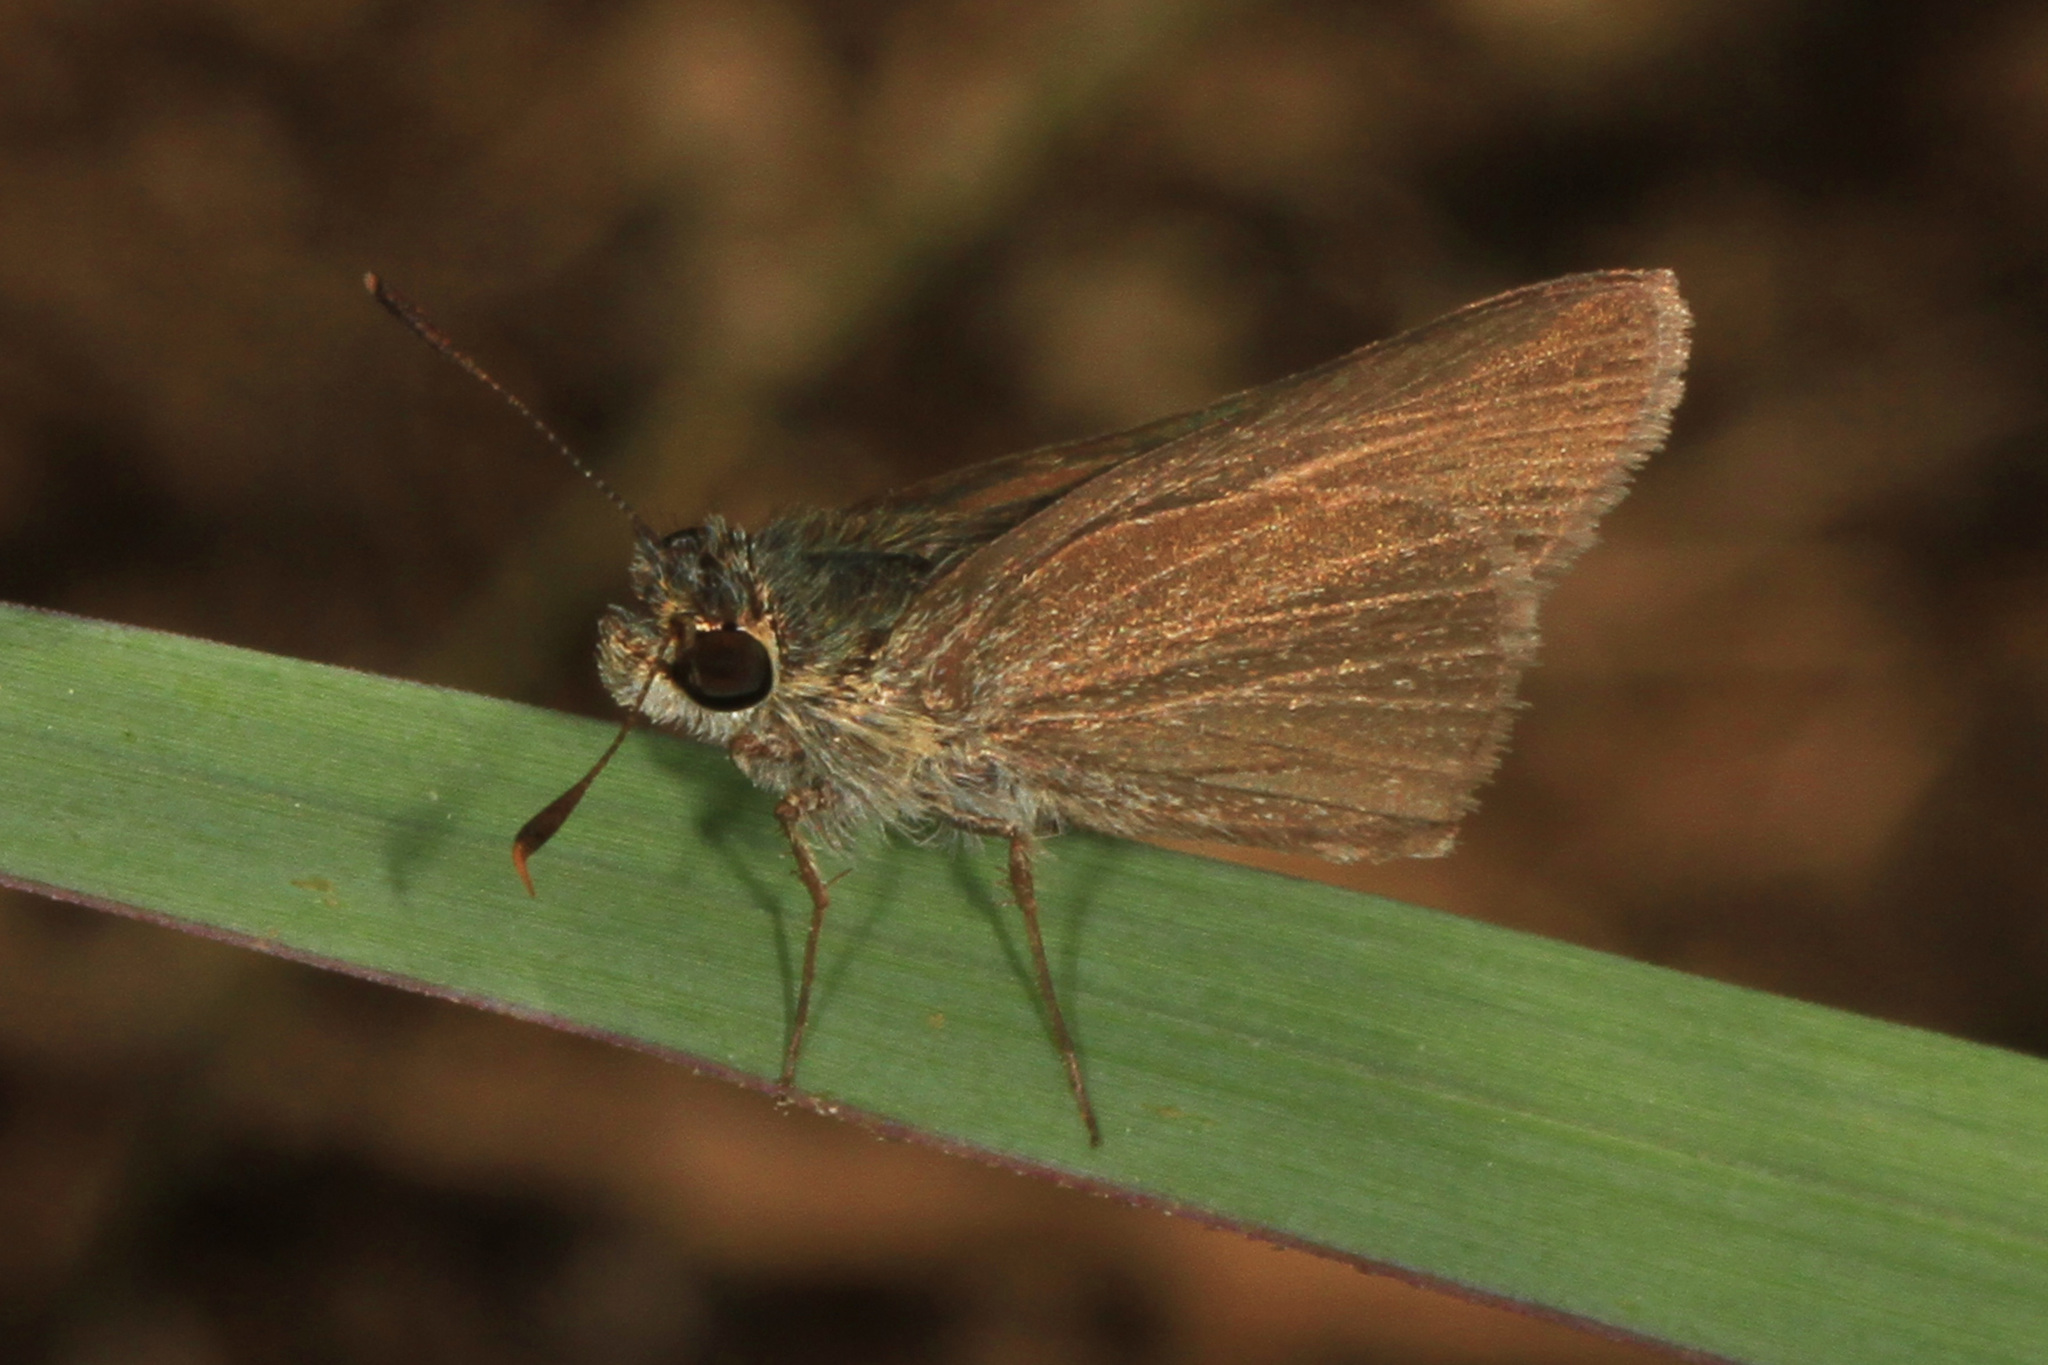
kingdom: Animalia
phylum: Arthropoda
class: Insecta
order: Lepidoptera
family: Hesperiidae
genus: Nastra
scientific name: Nastra lherminier
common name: Swarthy skipper
